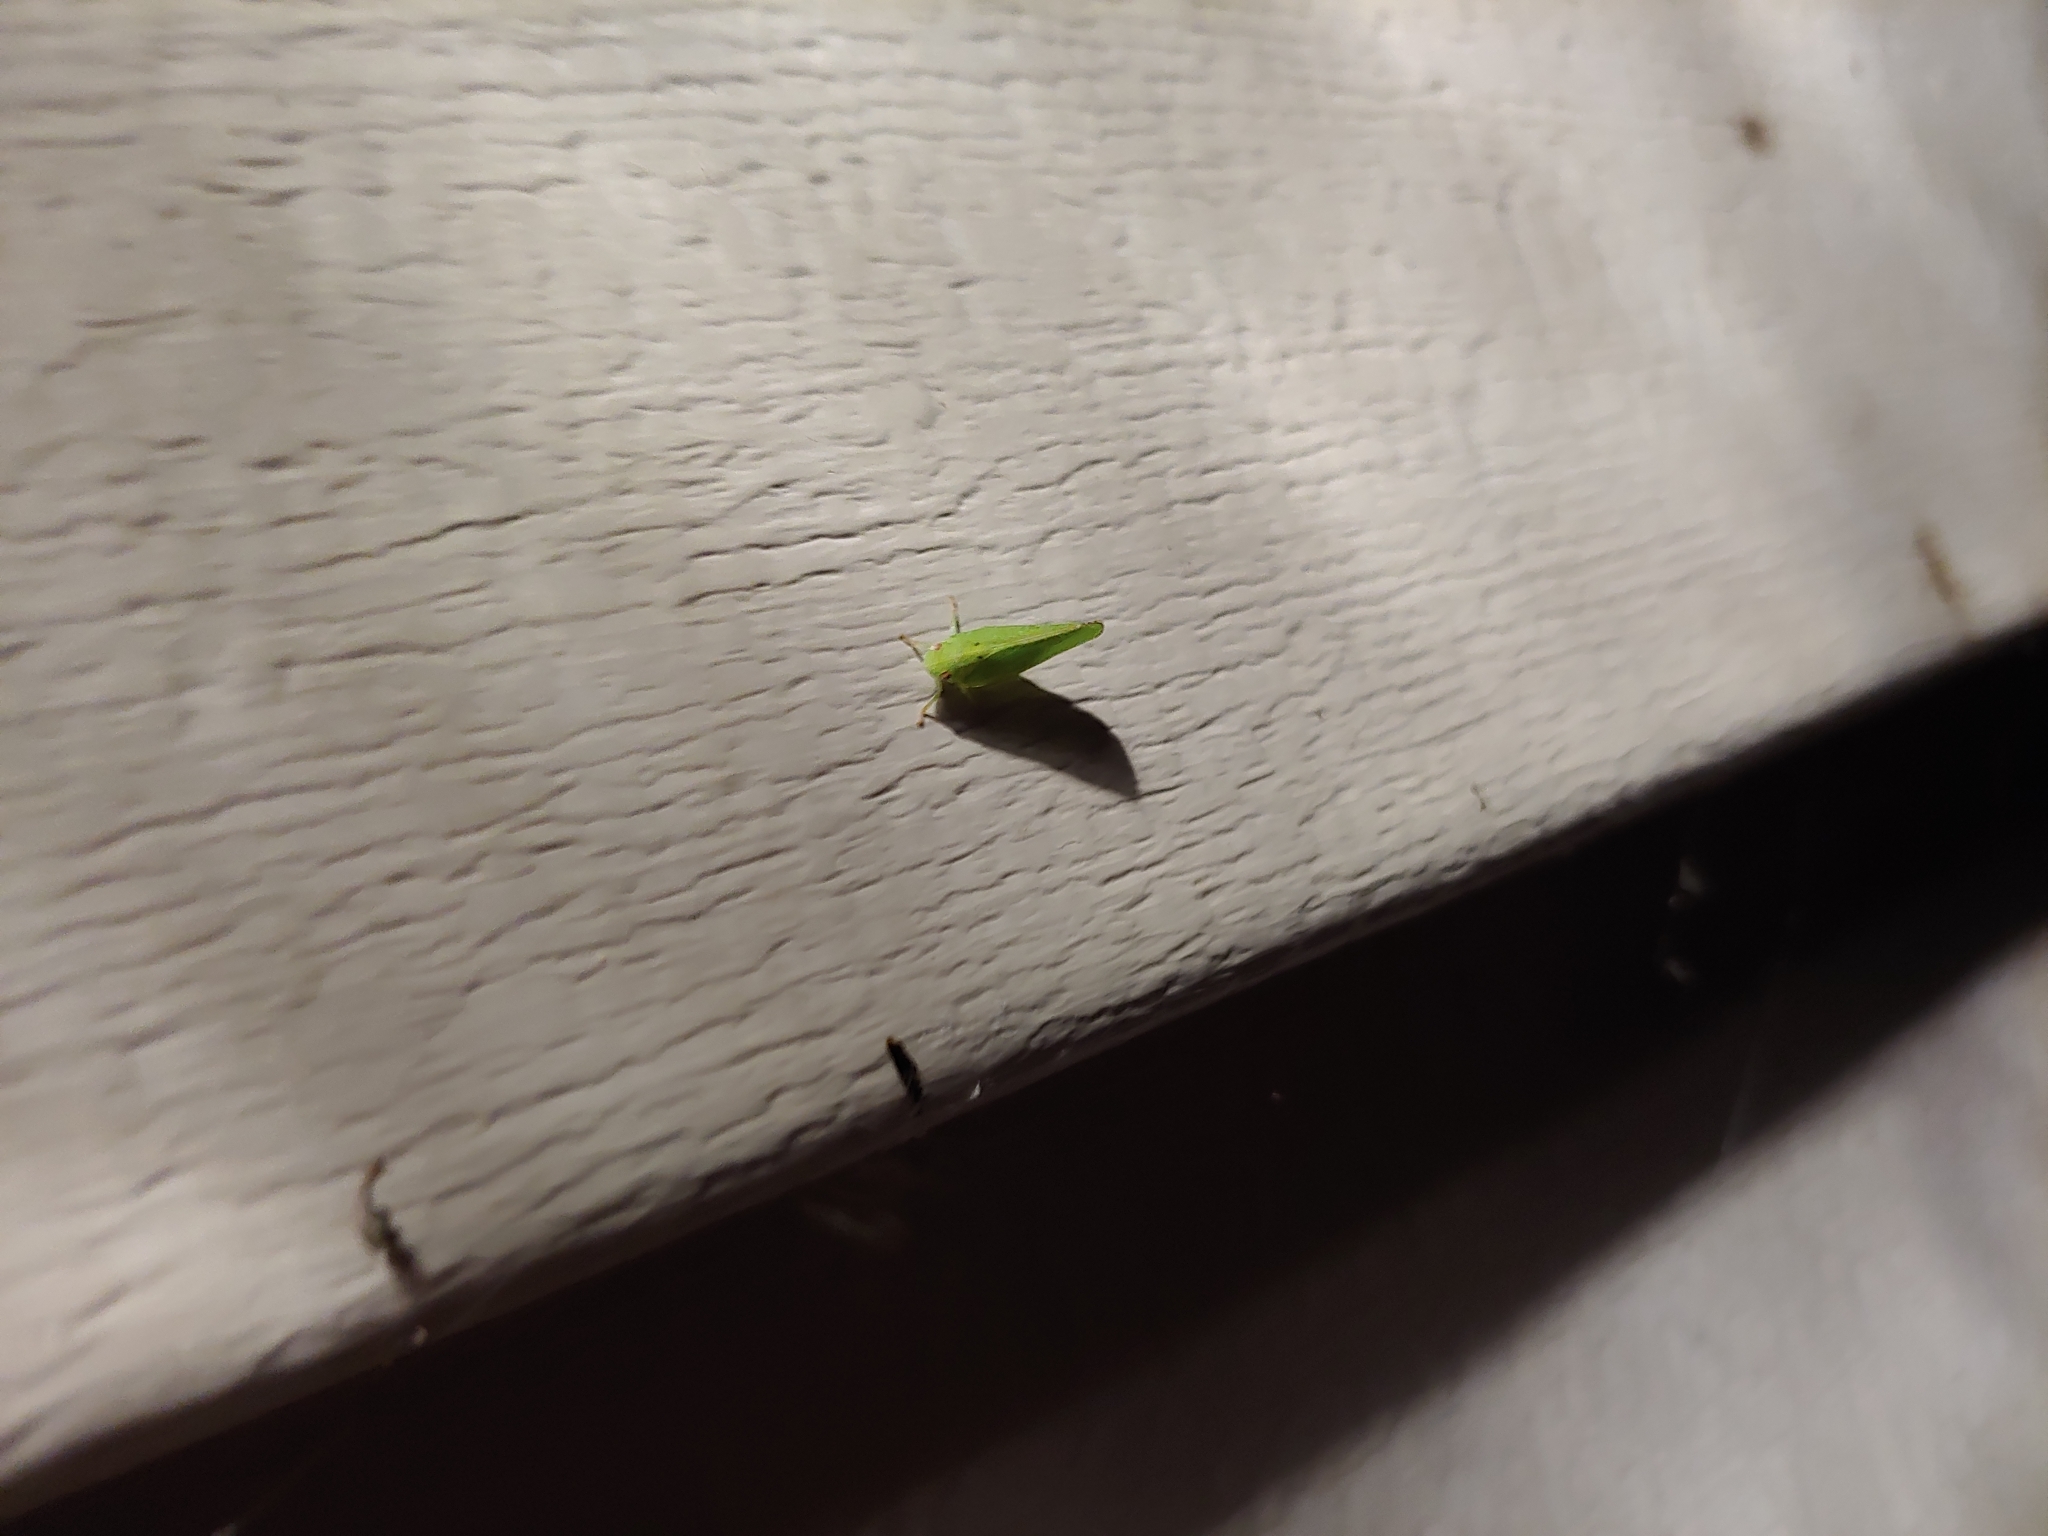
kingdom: Animalia
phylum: Arthropoda
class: Insecta
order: Hemiptera
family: Acanaloniidae
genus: Acanalonia
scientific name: Acanalonia conica
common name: Green cone-headed planthopper
